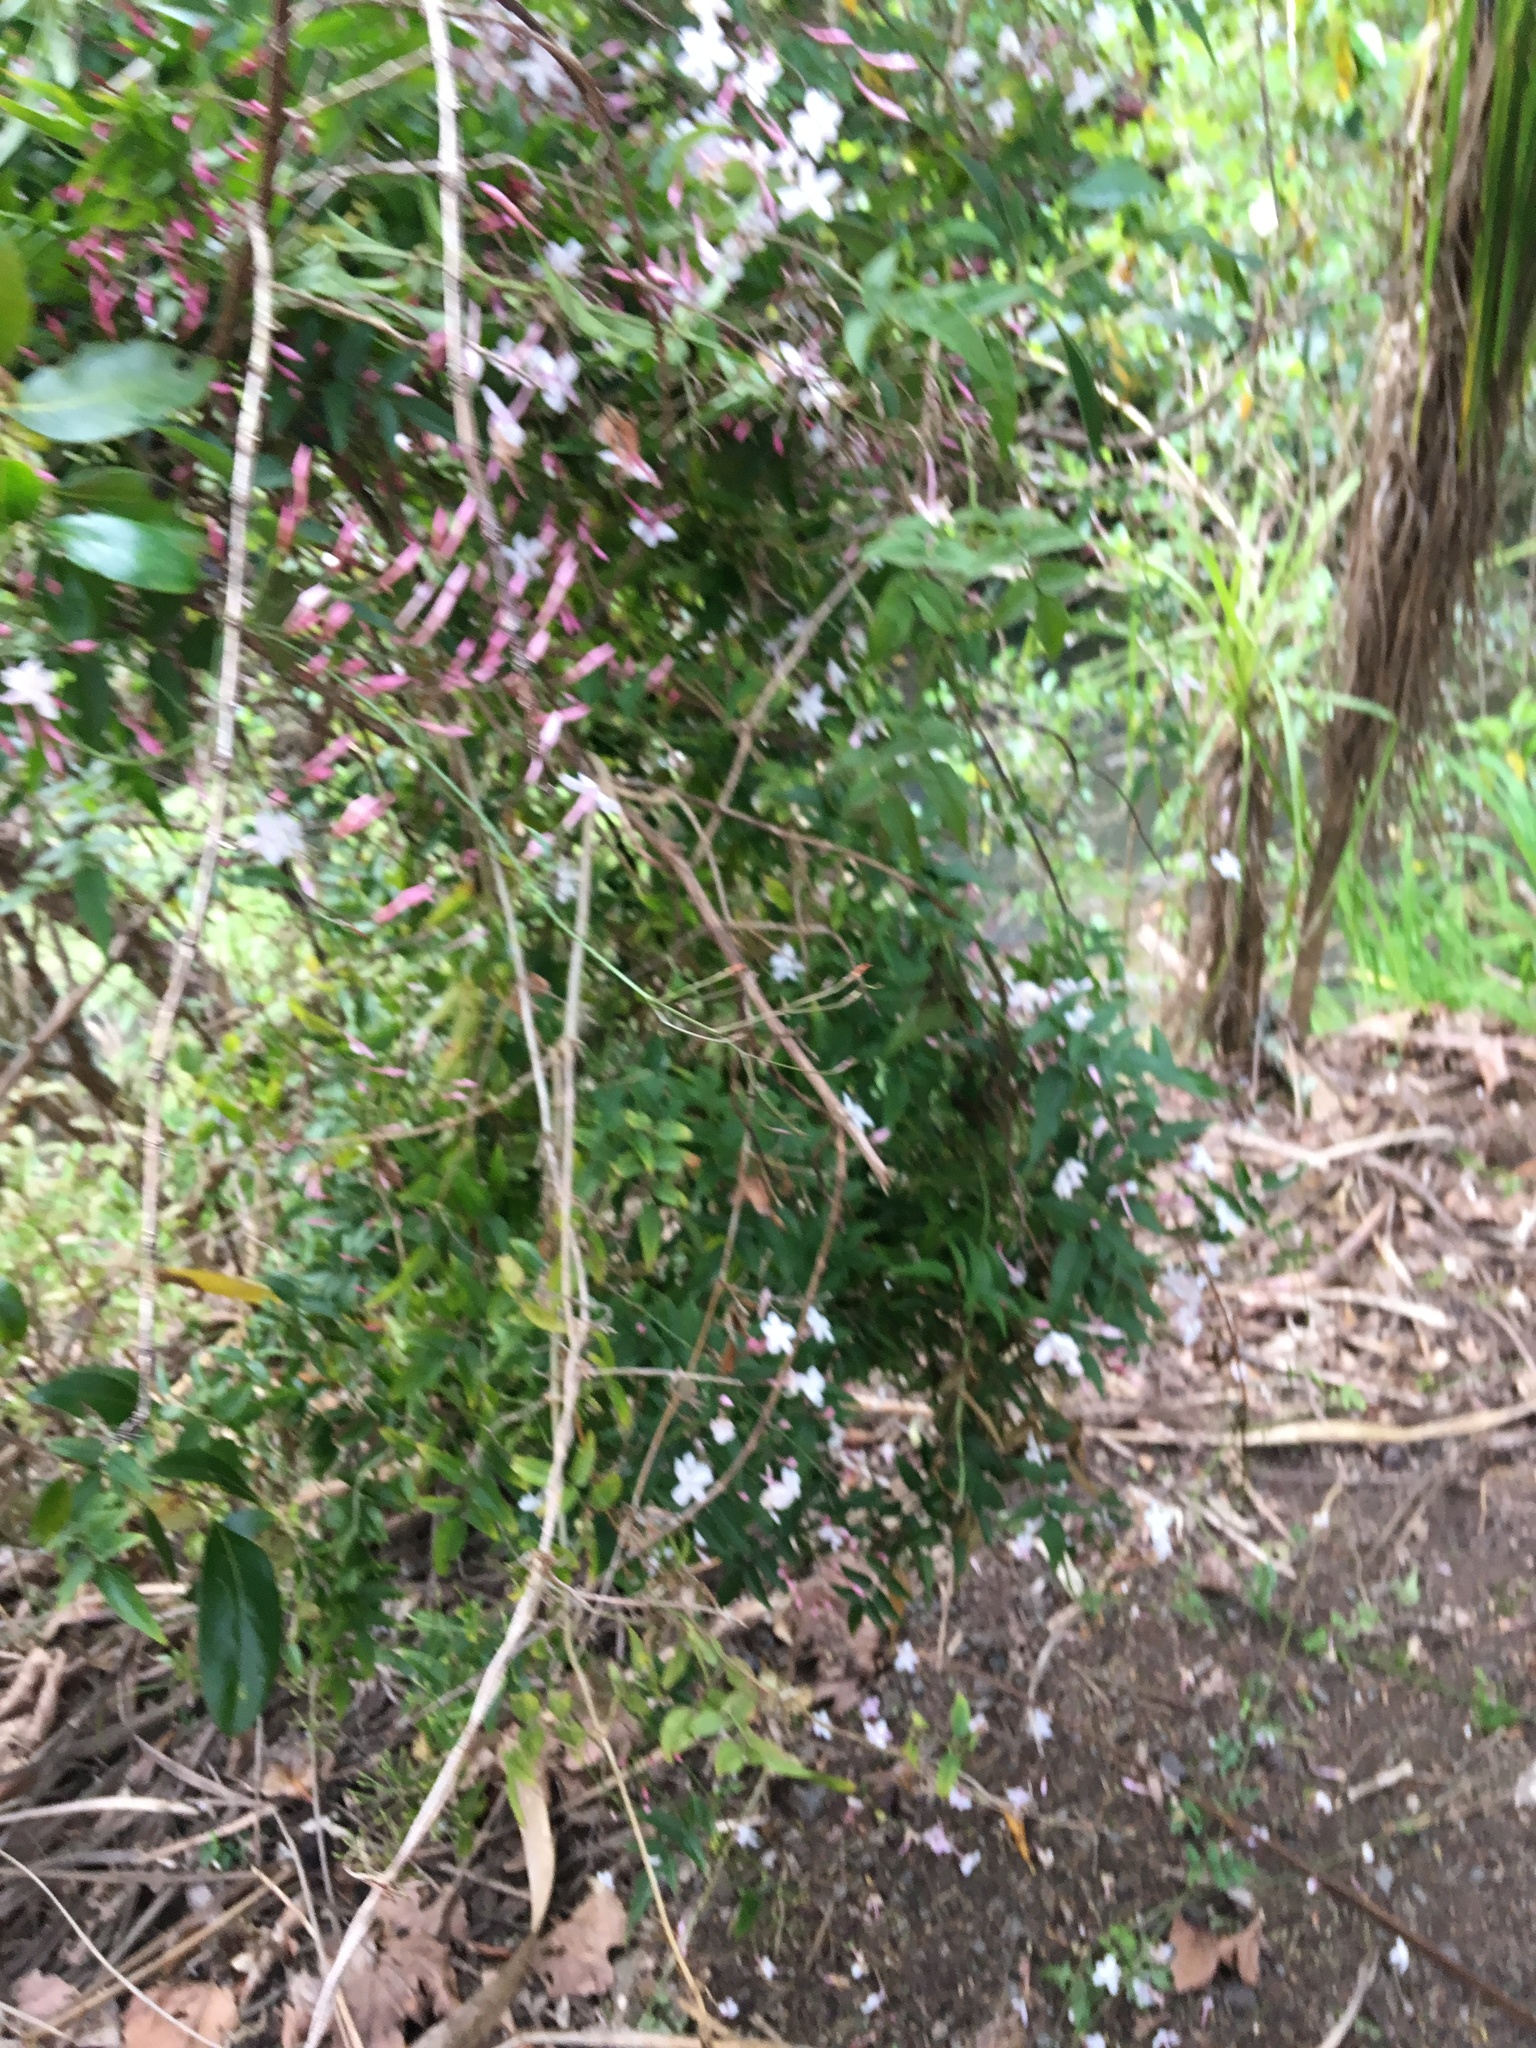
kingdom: Plantae
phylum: Tracheophyta
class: Liliopsida
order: Asparagales
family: Asparagaceae
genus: Cordyline
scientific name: Cordyline australis
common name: Cabbage-palm
